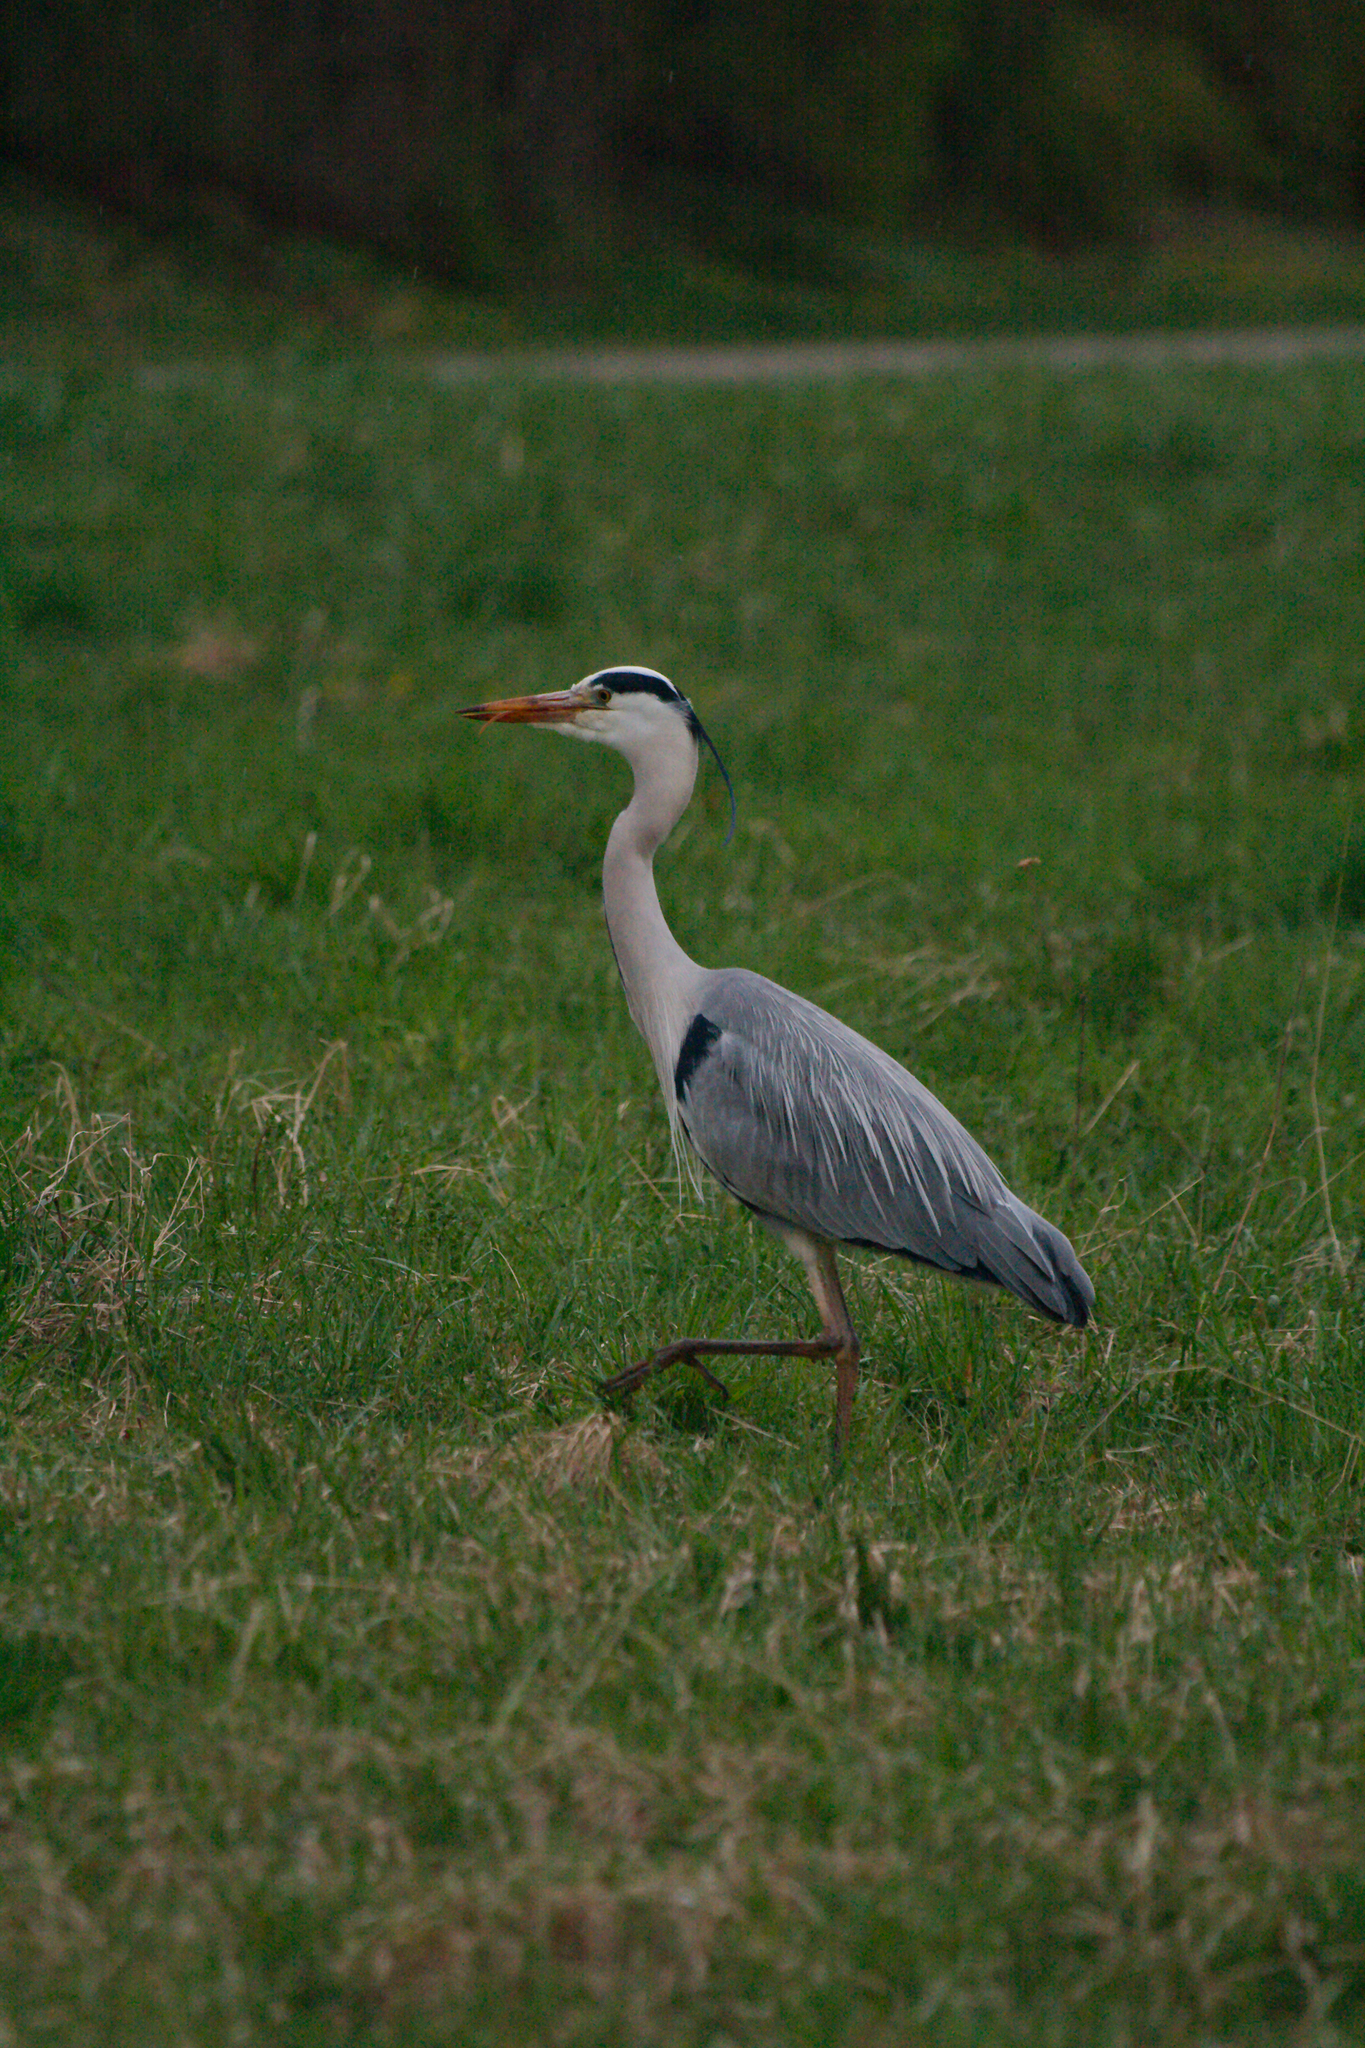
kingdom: Animalia
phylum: Chordata
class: Aves
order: Pelecaniformes
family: Ardeidae
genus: Ardea
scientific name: Ardea cinerea
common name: Grey heron
